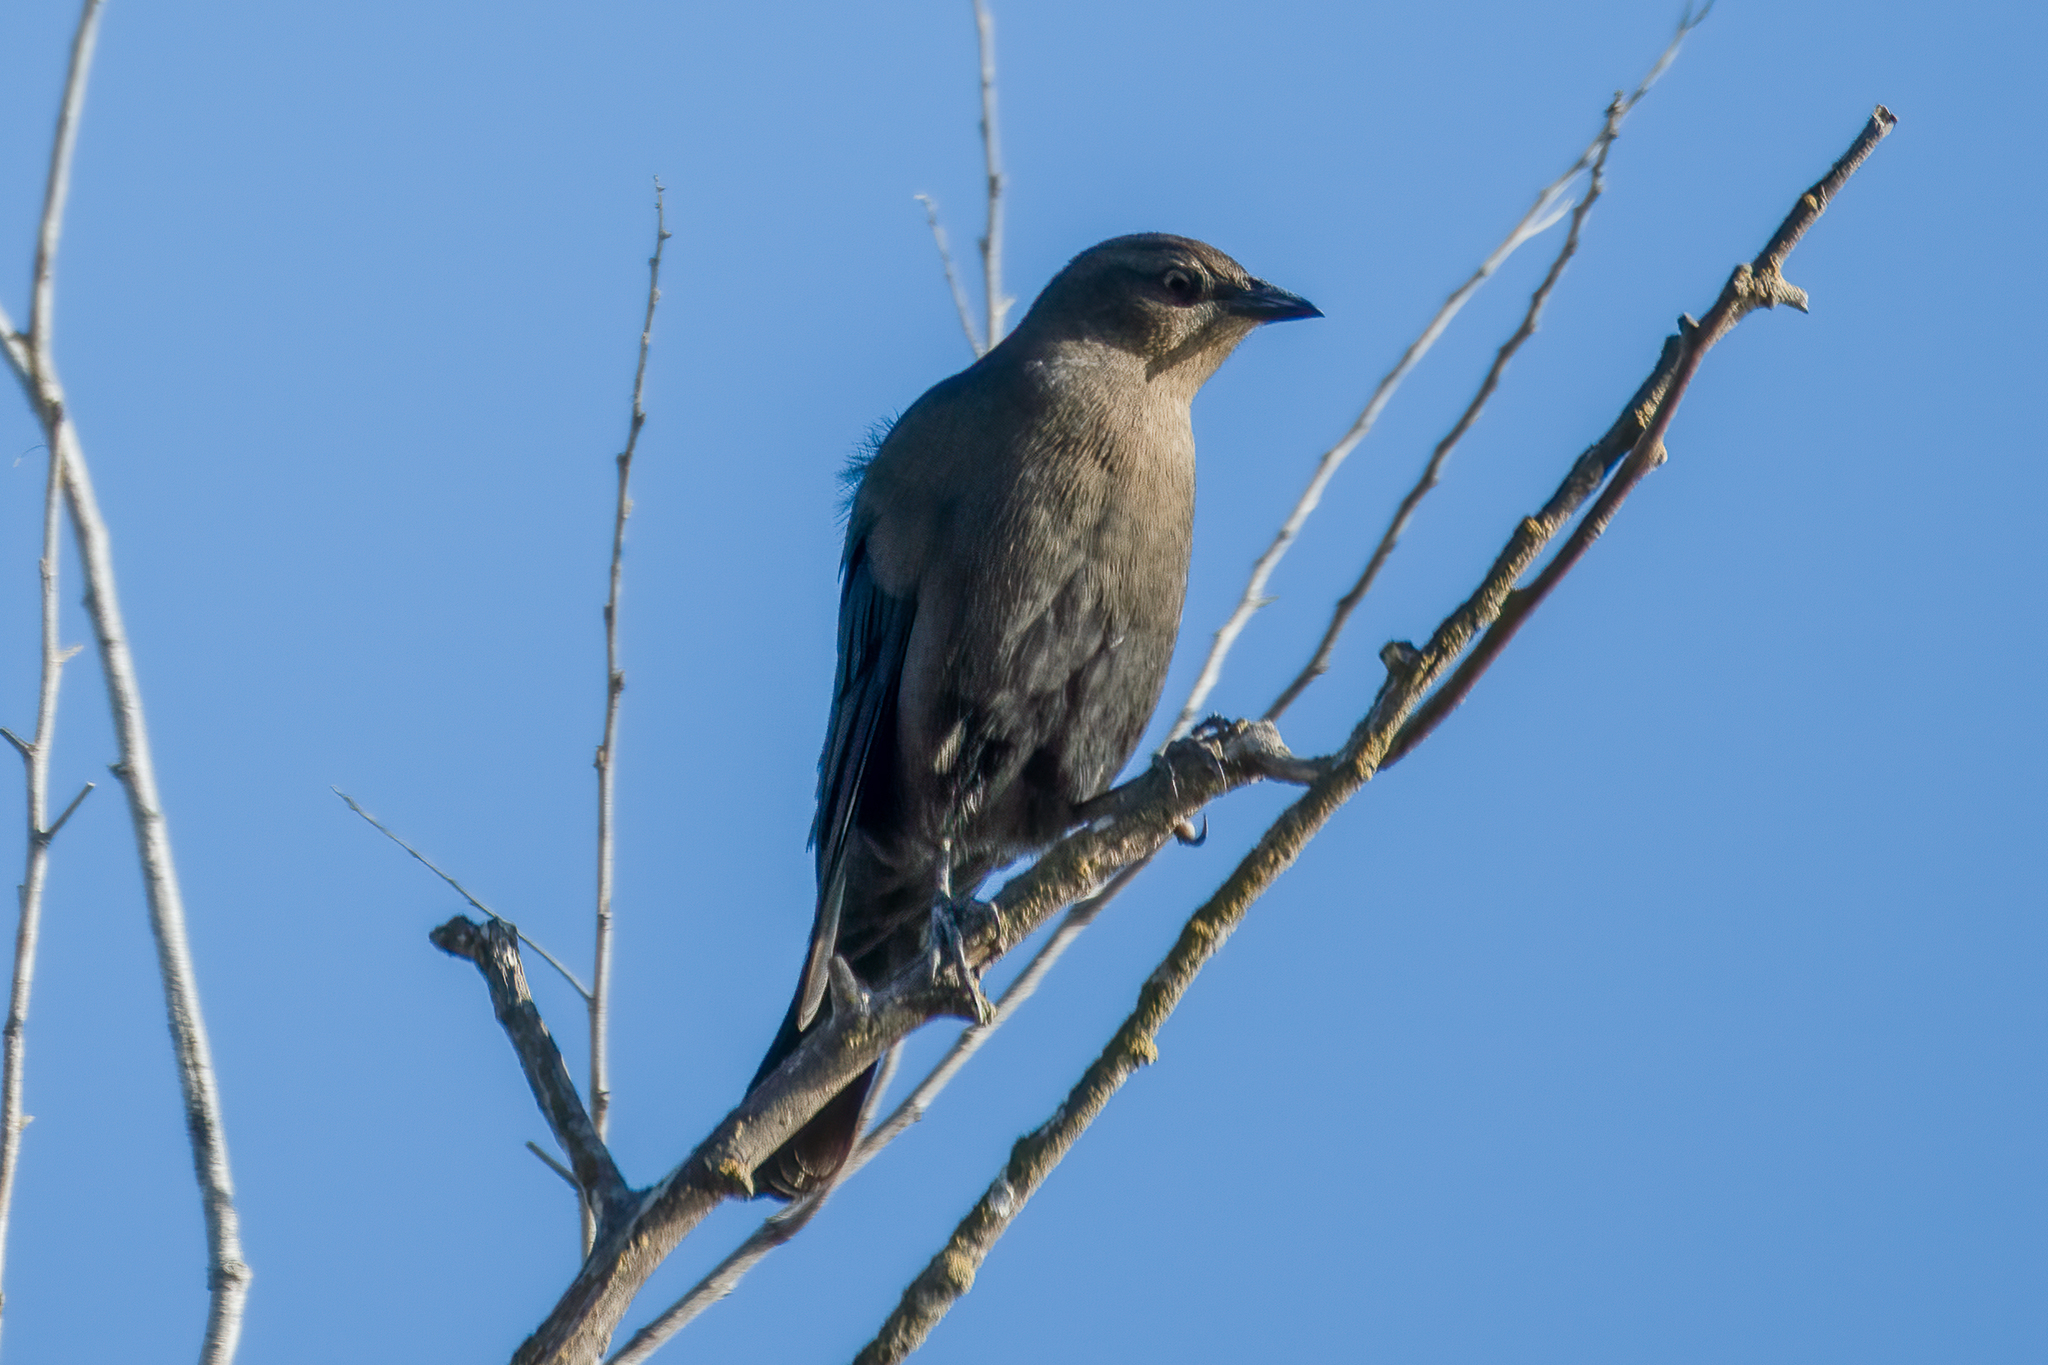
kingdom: Animalia
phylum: Chordata
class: Aves
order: Passeriformes
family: Icteridae
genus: Euphagus
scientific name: Euphagus cyanocephalus
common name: Brewer's blackbird
